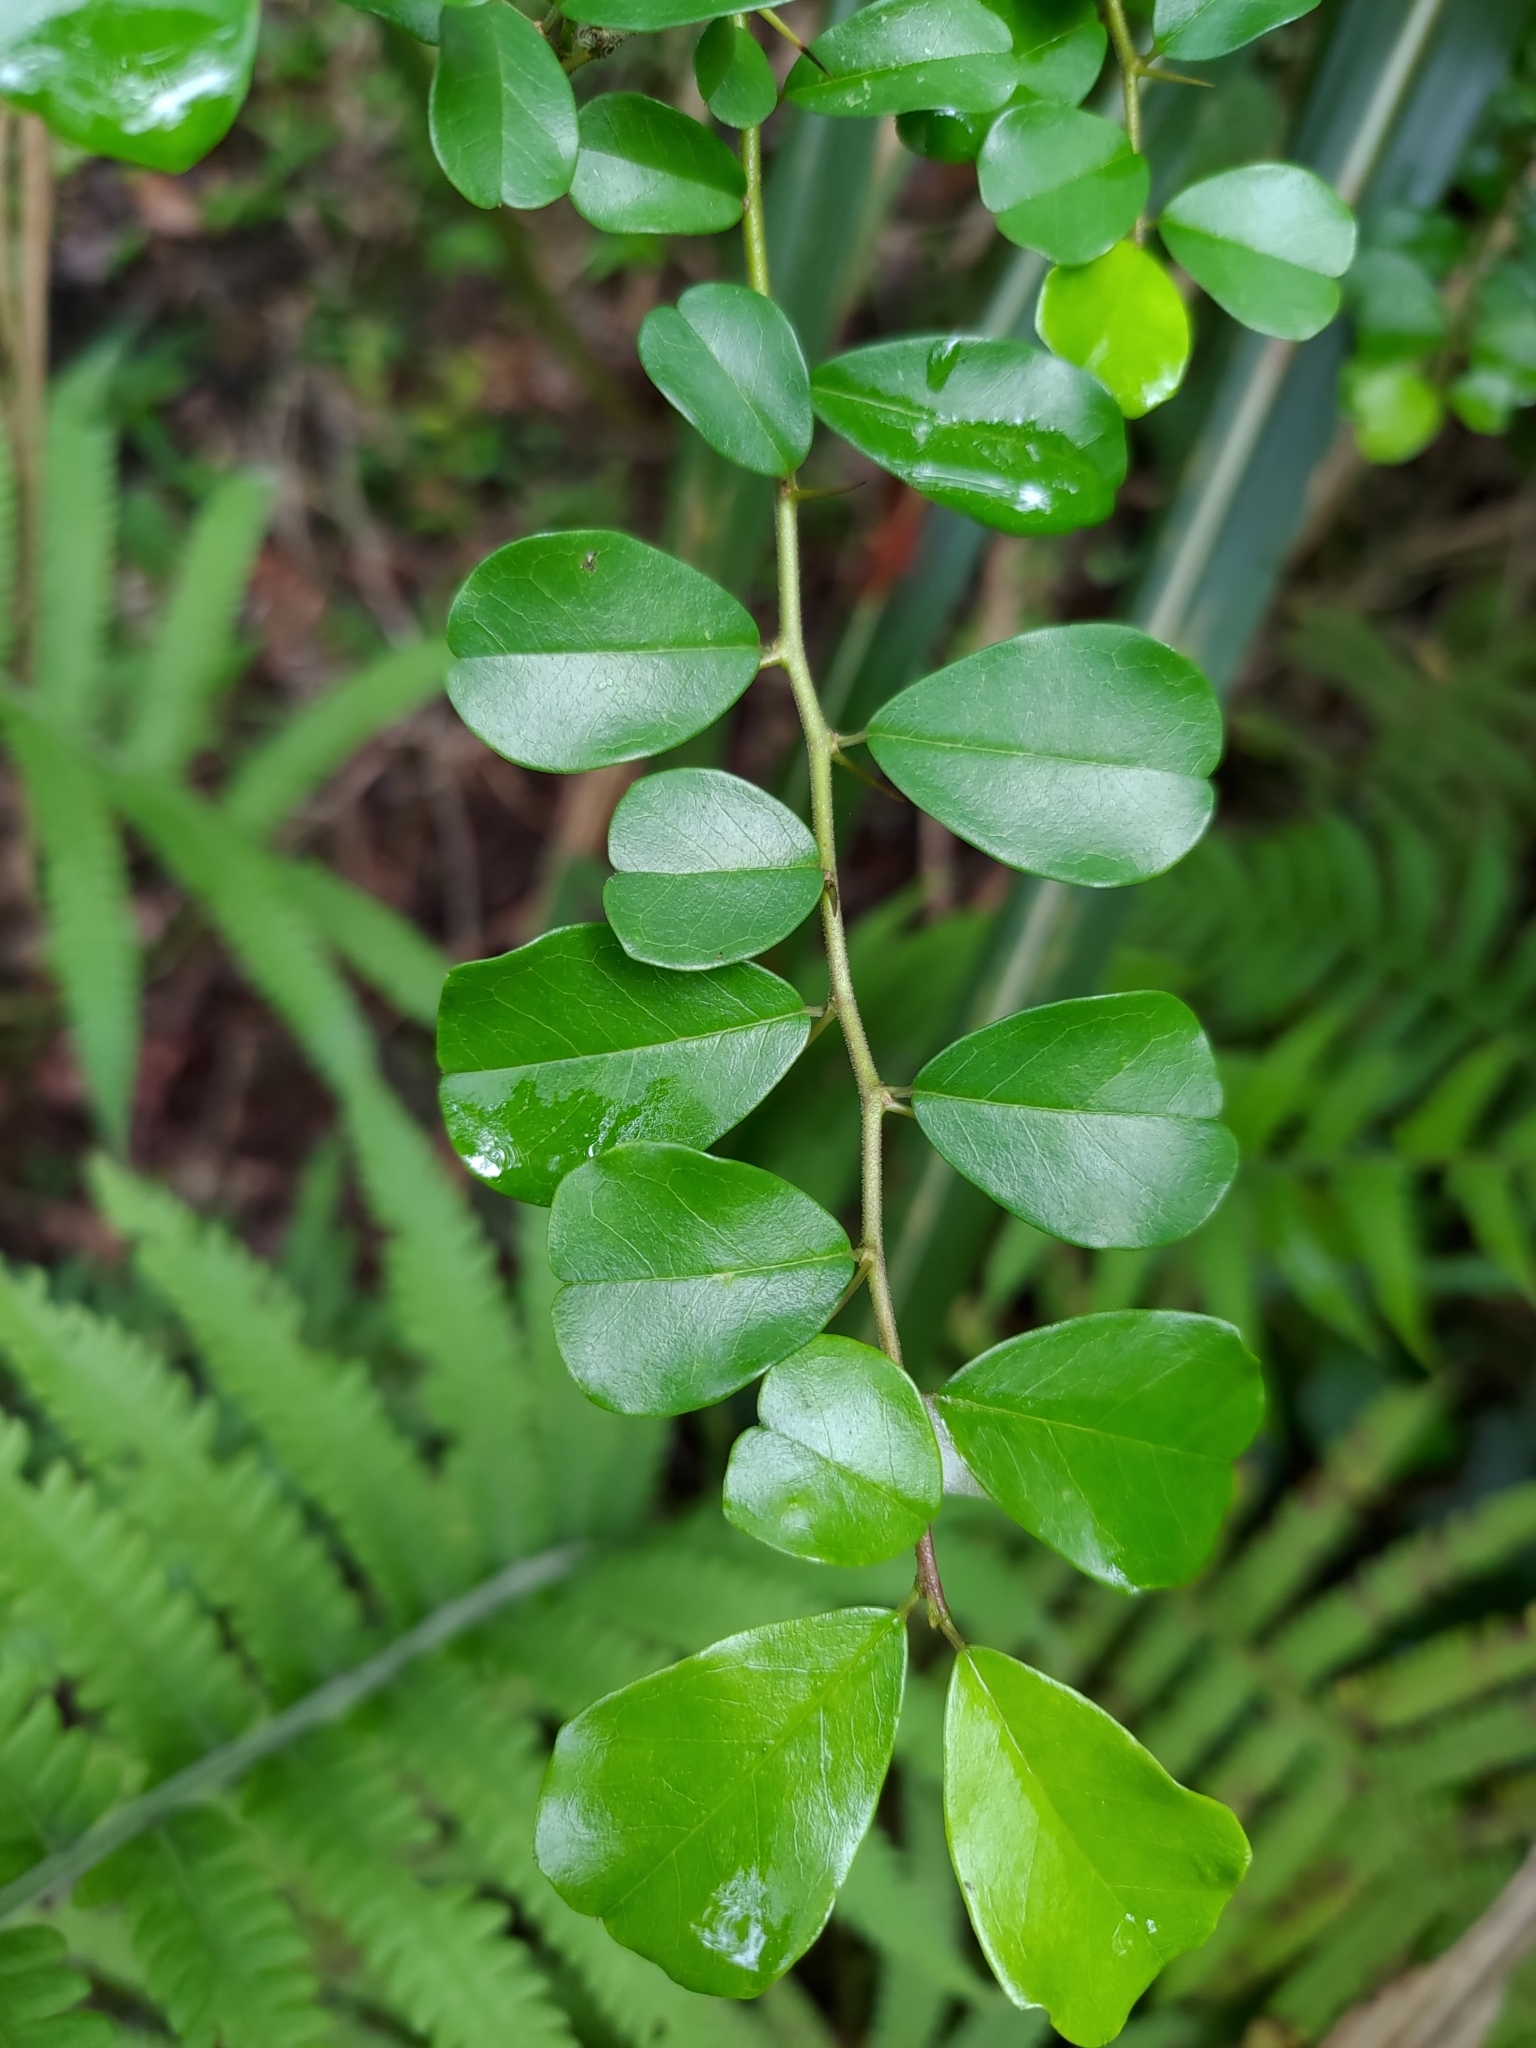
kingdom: Plantae
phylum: Tracheophyta
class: Magnoliopsida
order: Rosales
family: Moraceae
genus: Maclura
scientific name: Maclura cochinchinensis
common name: Cockspurthorn
